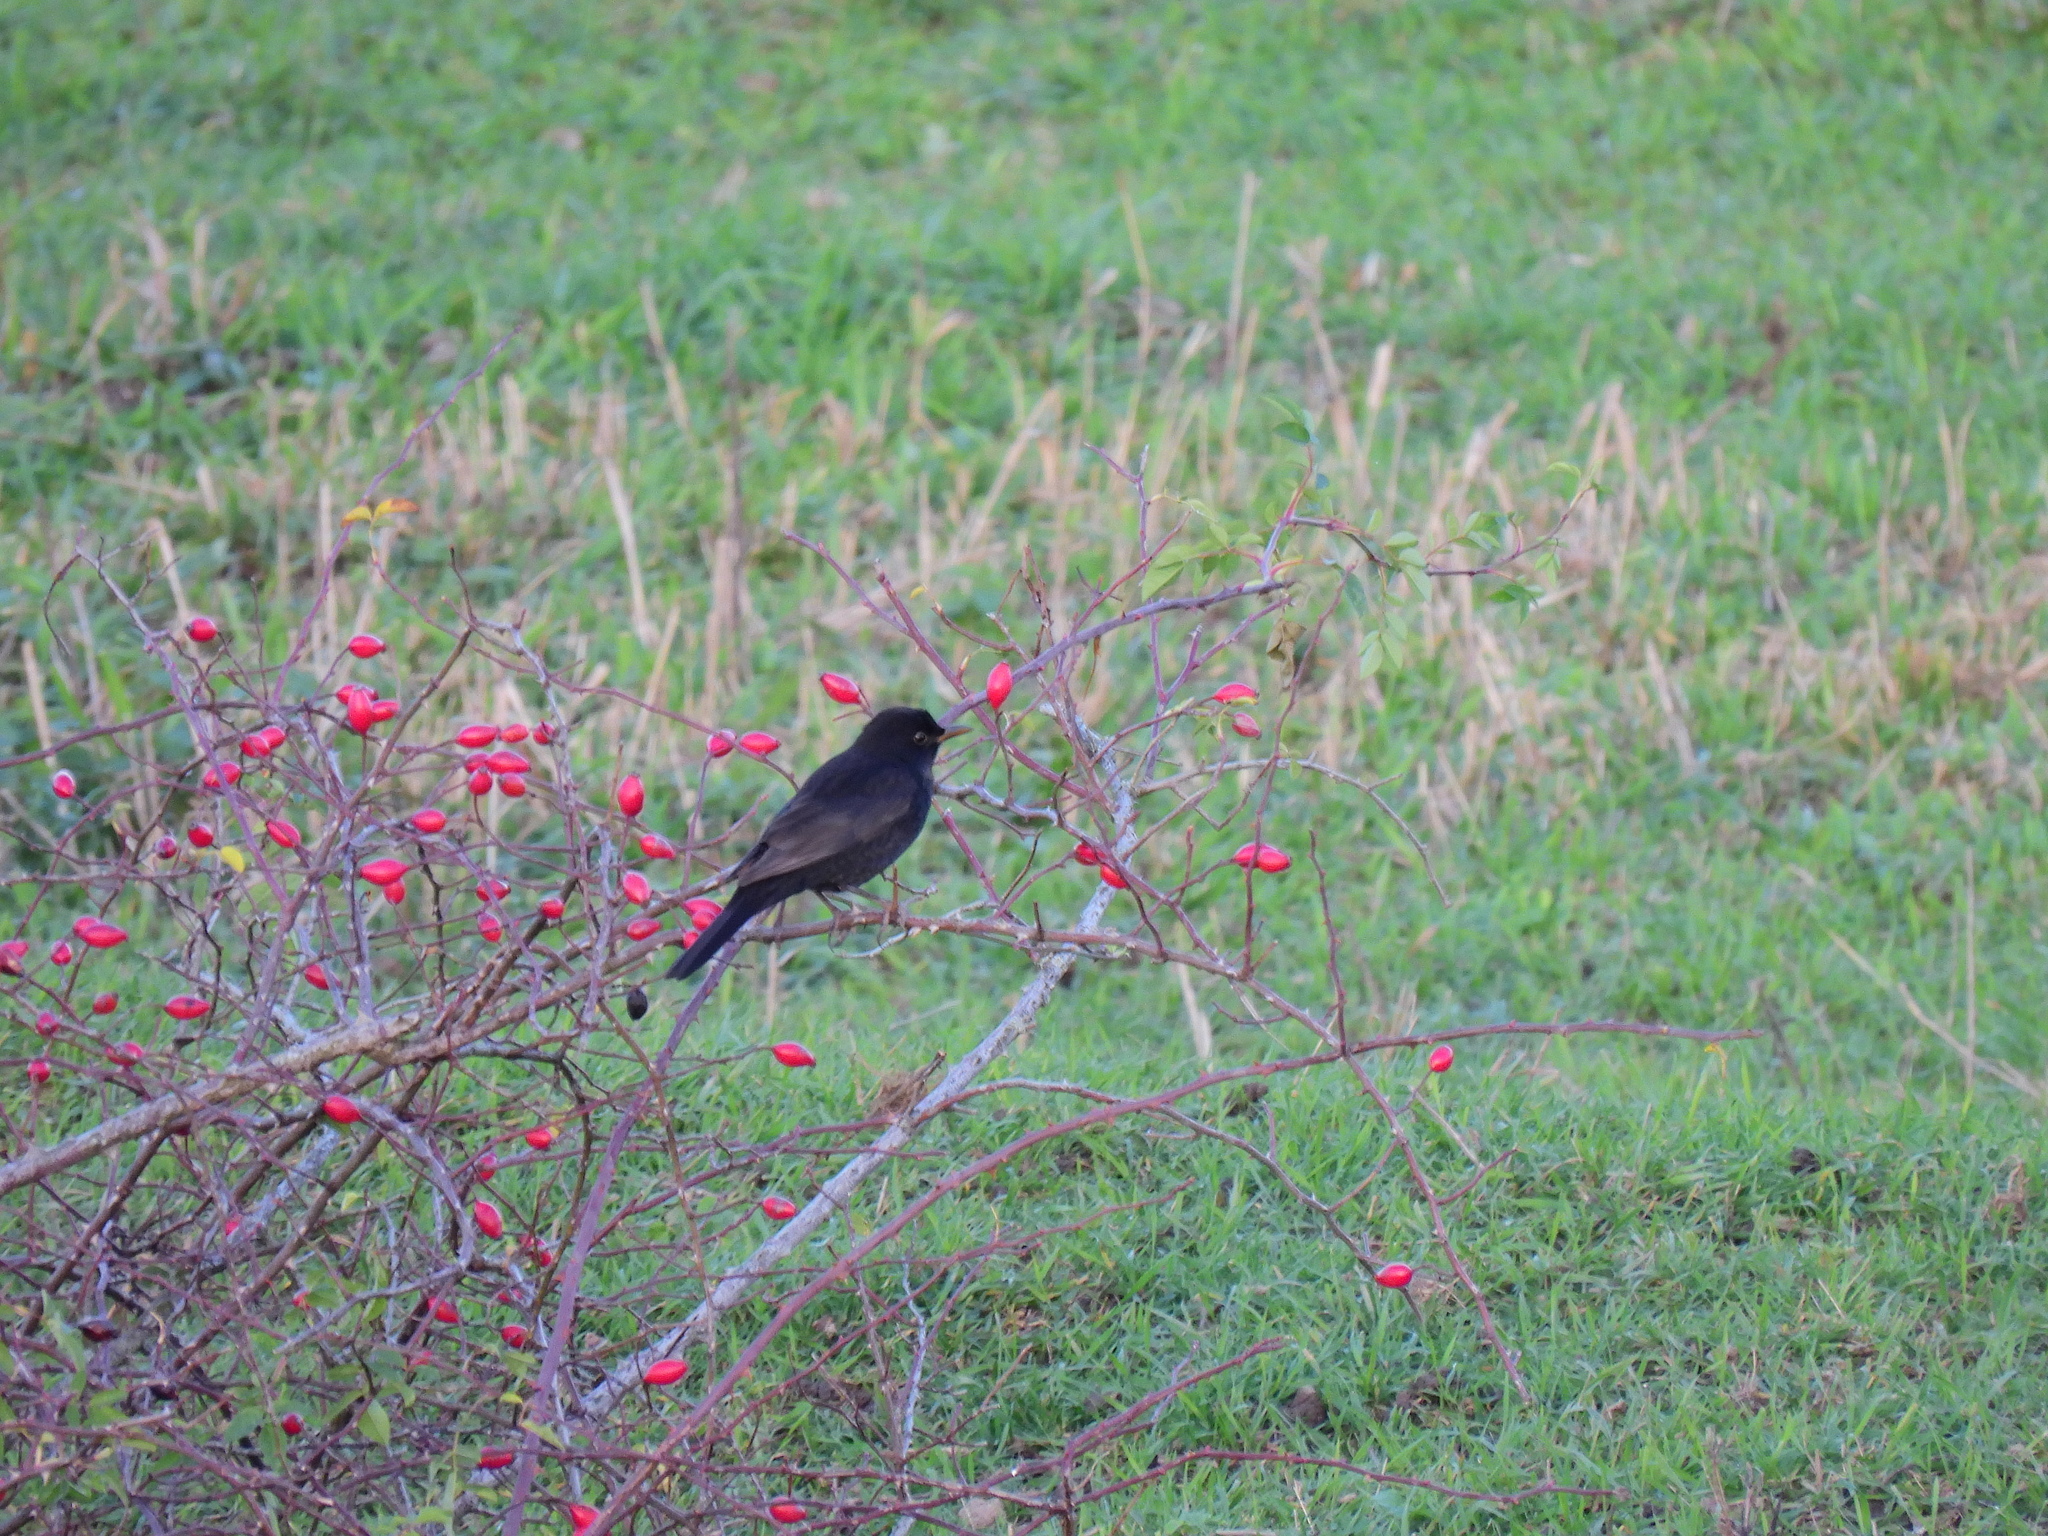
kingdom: Animalia
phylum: Chordata
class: Aves
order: Passeriformes
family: Turdidae
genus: Turdus
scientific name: Turdus merula
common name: Common blackbird
